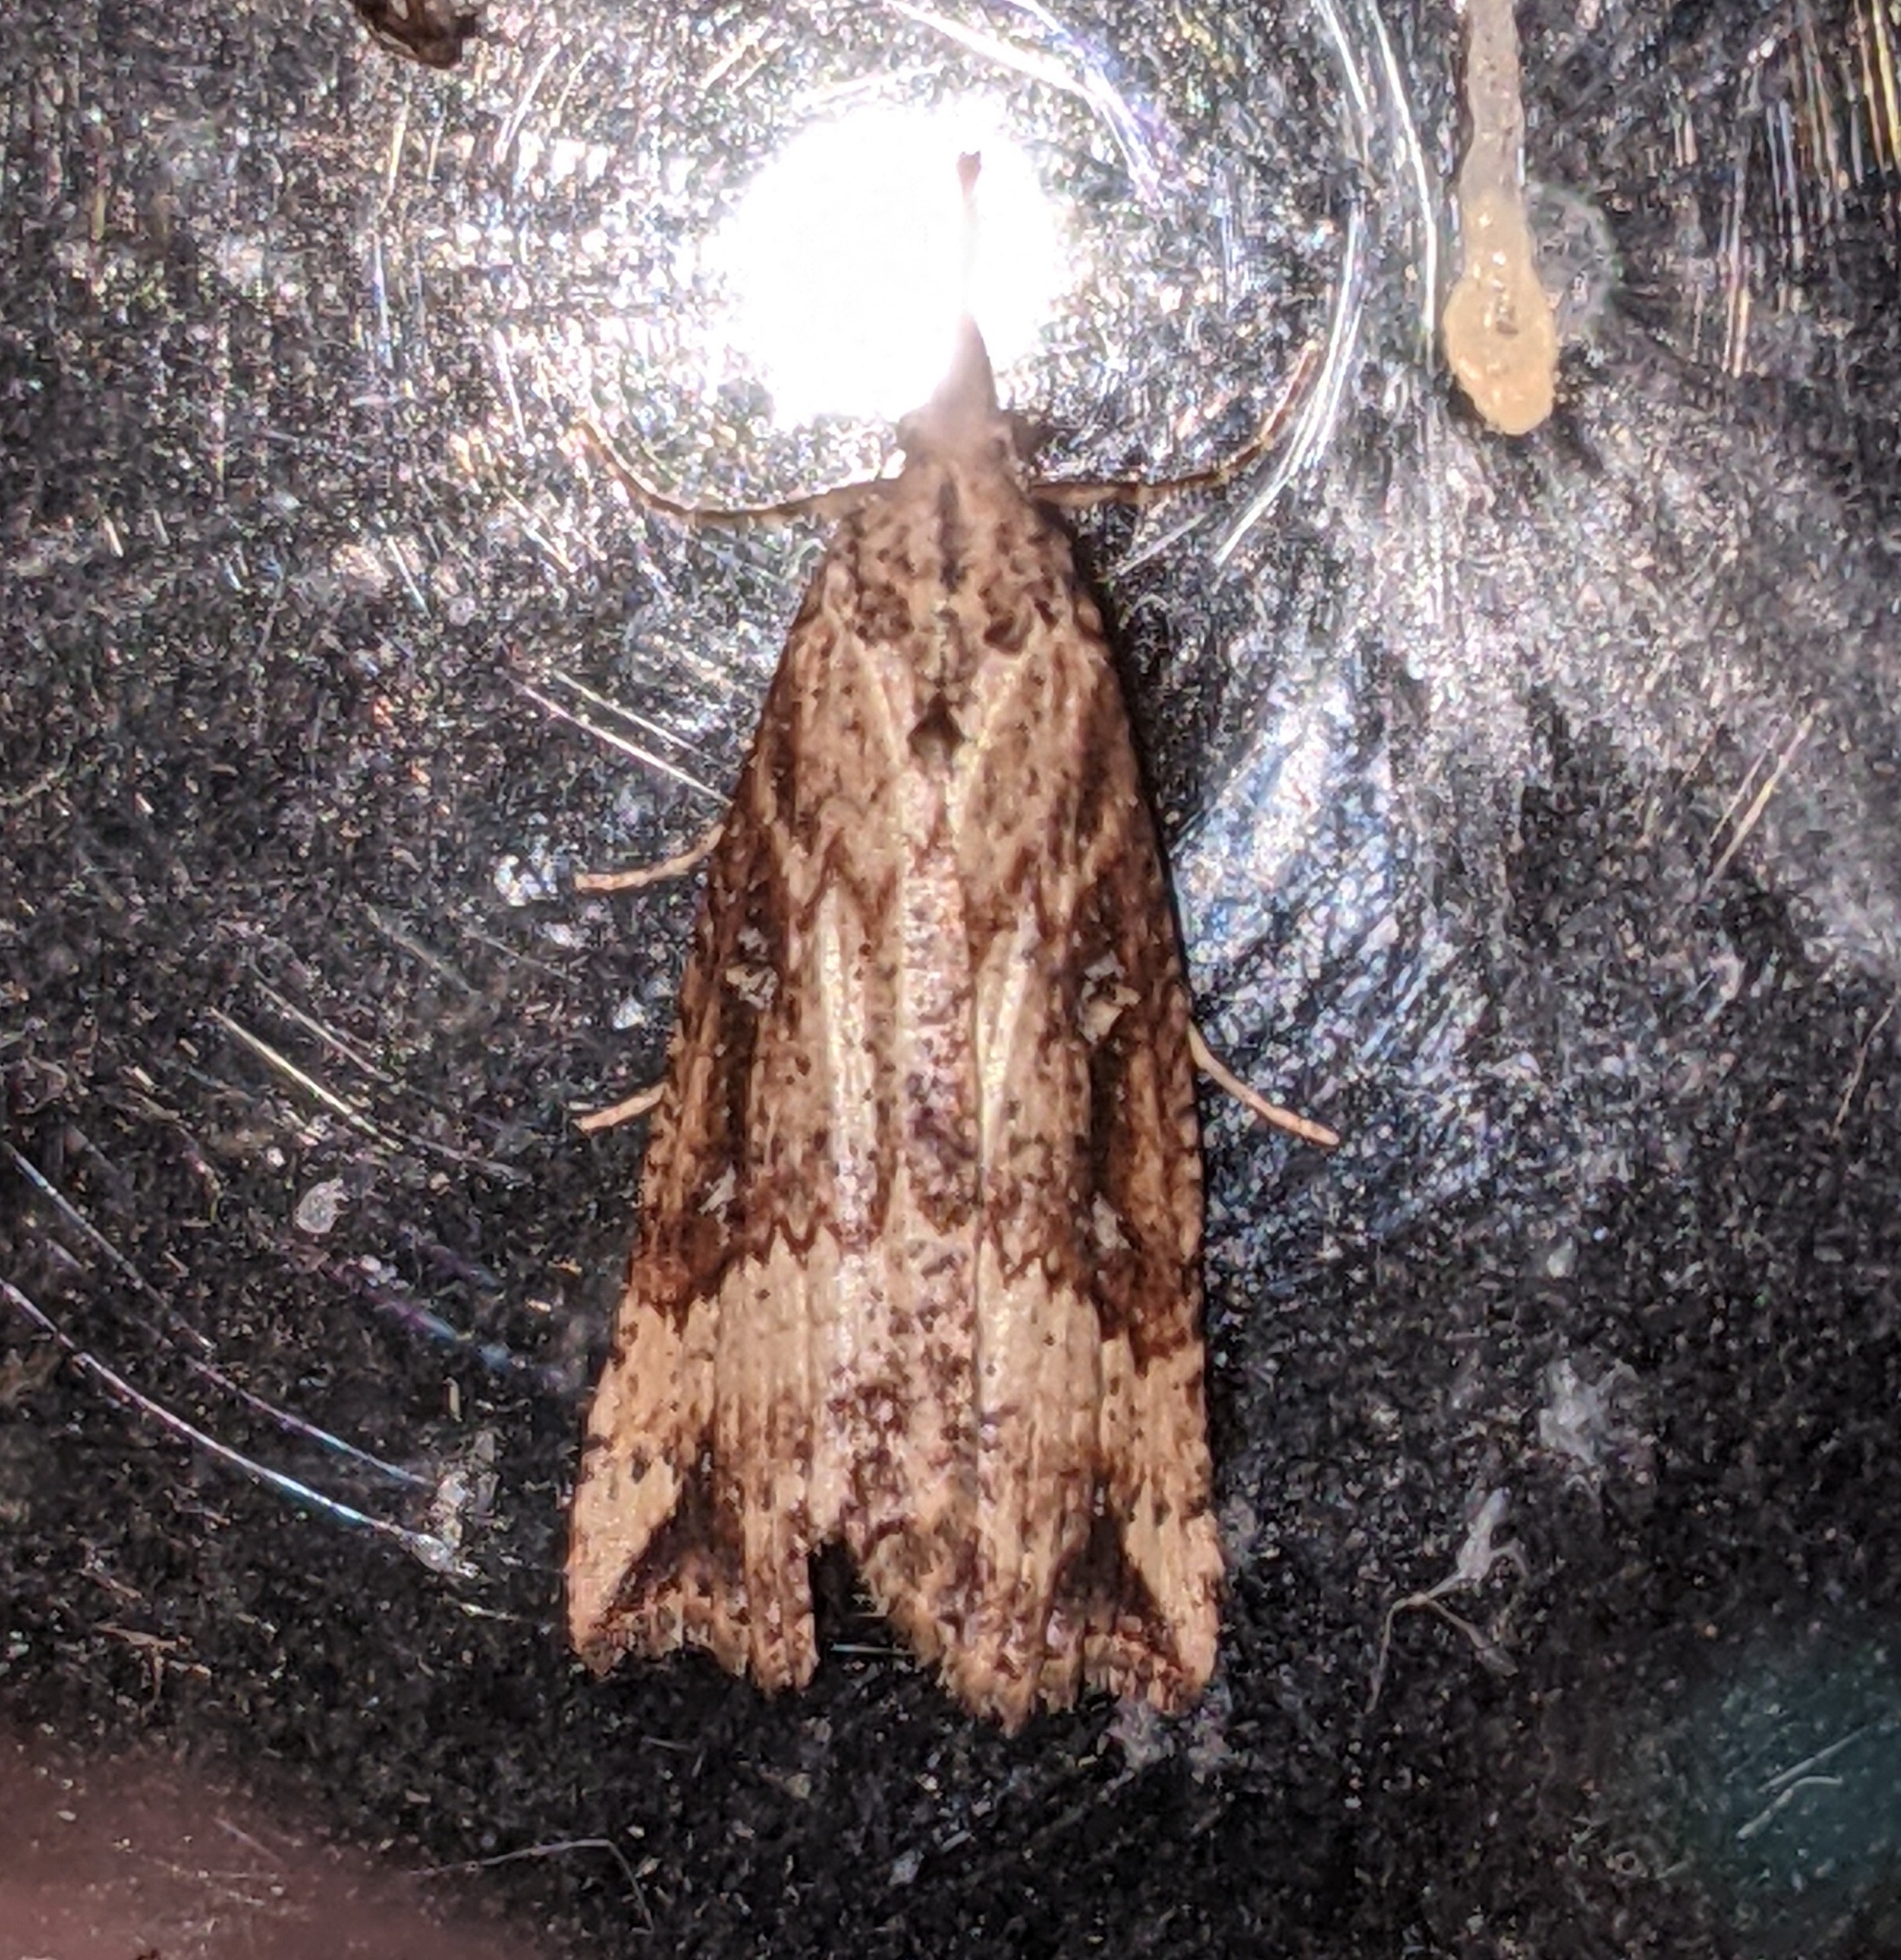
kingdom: Animalia
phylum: Arthropoda
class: Insecta
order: Lepidoptera
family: Erebidae
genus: Hypena
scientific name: Hypena californica
